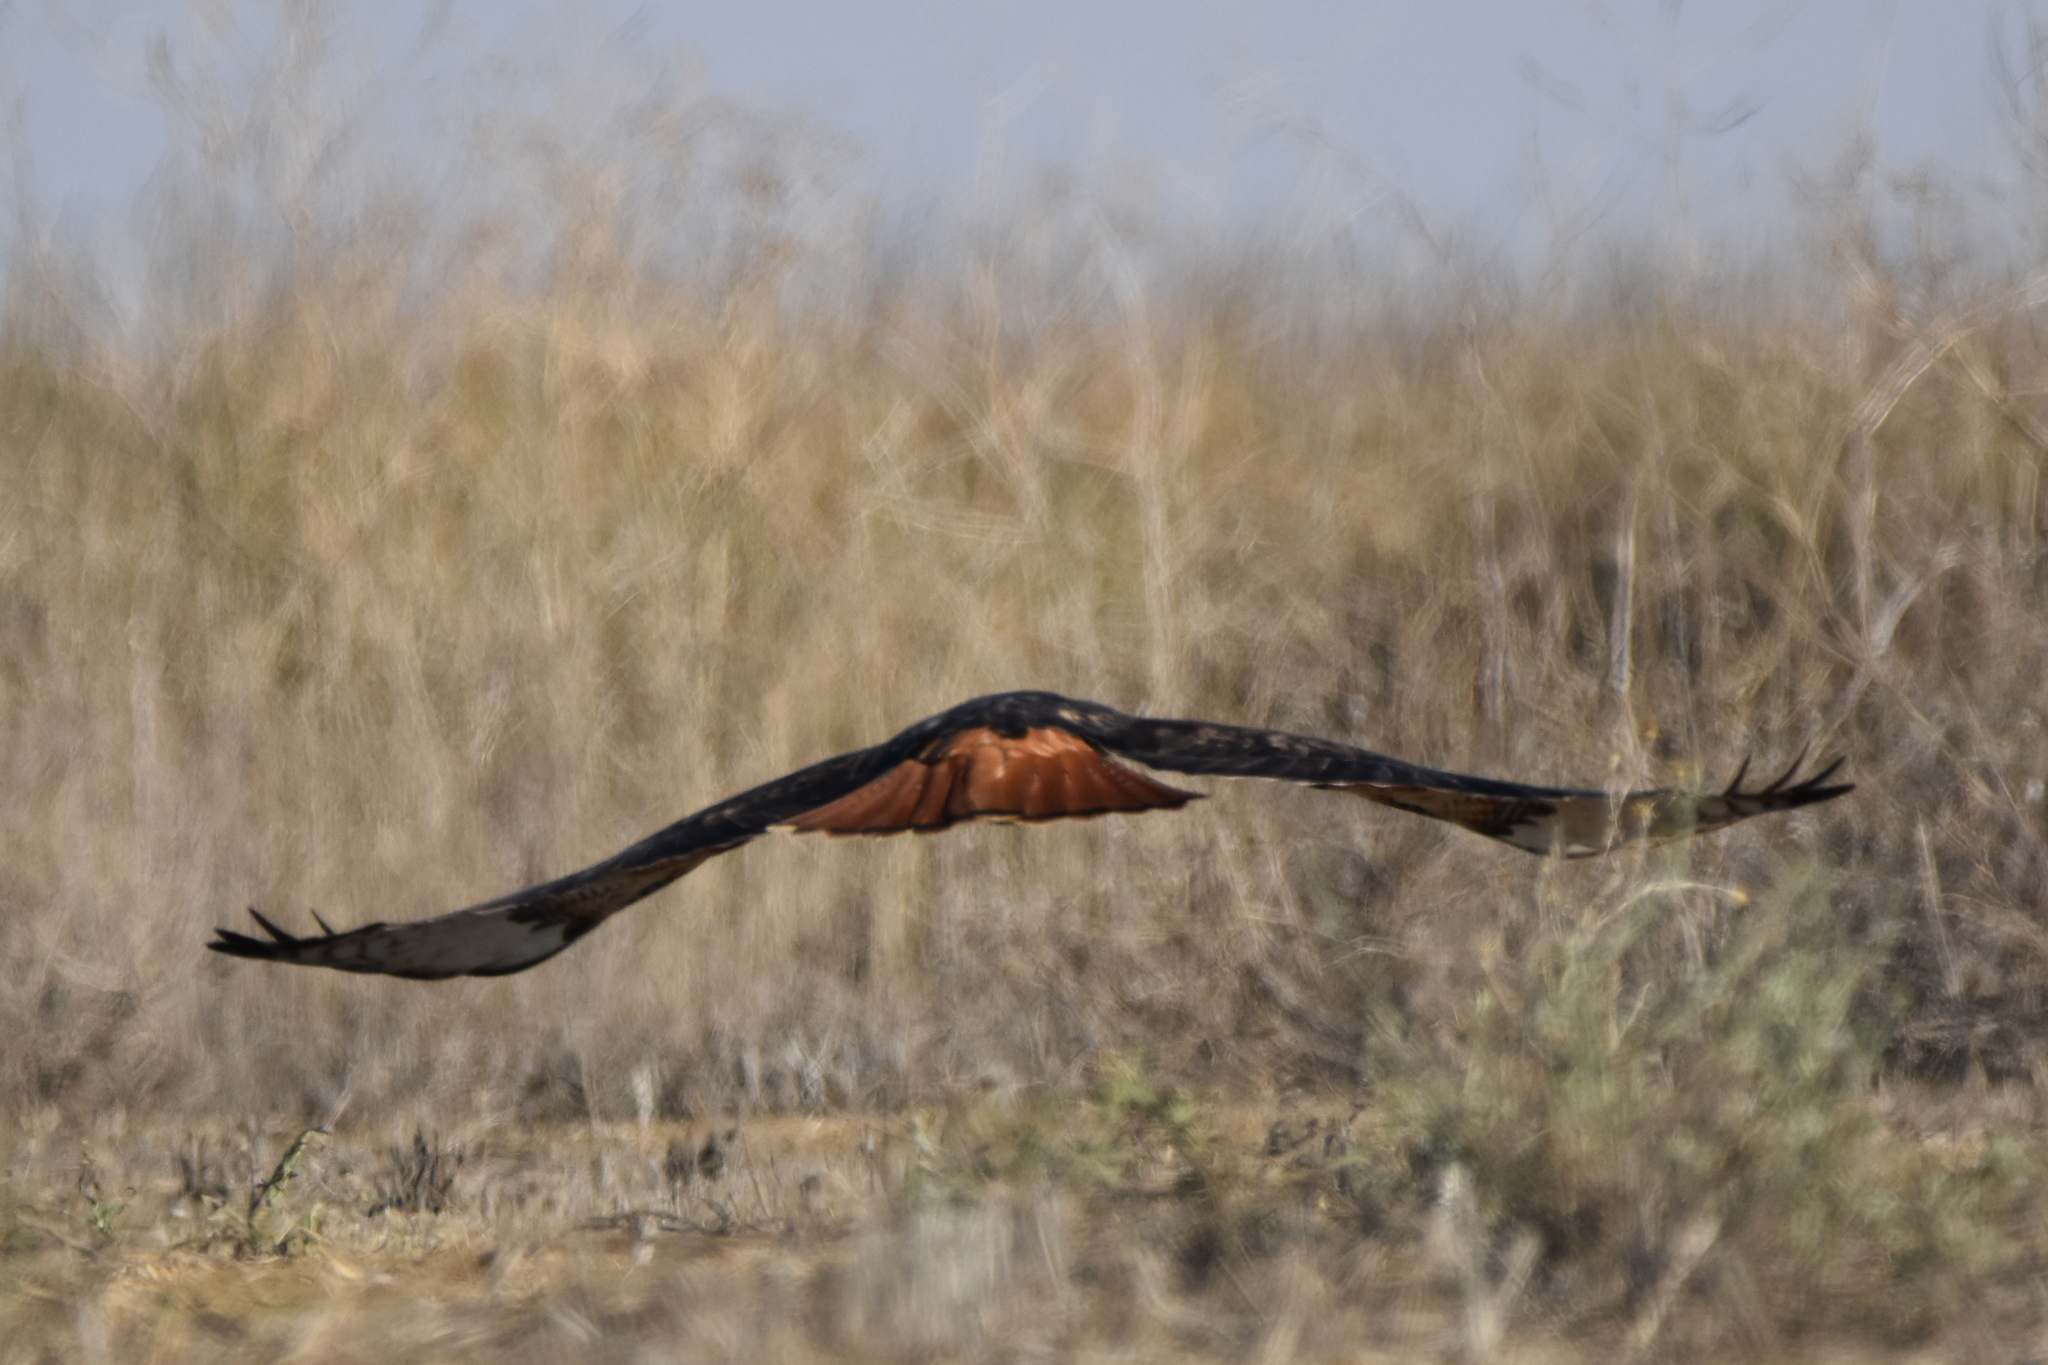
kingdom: Animalia
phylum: Chordata
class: Aves
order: Accipitriformes
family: Accipitridae
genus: Buteo
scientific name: Buteo jamaicensis
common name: Red-tailed hawk
